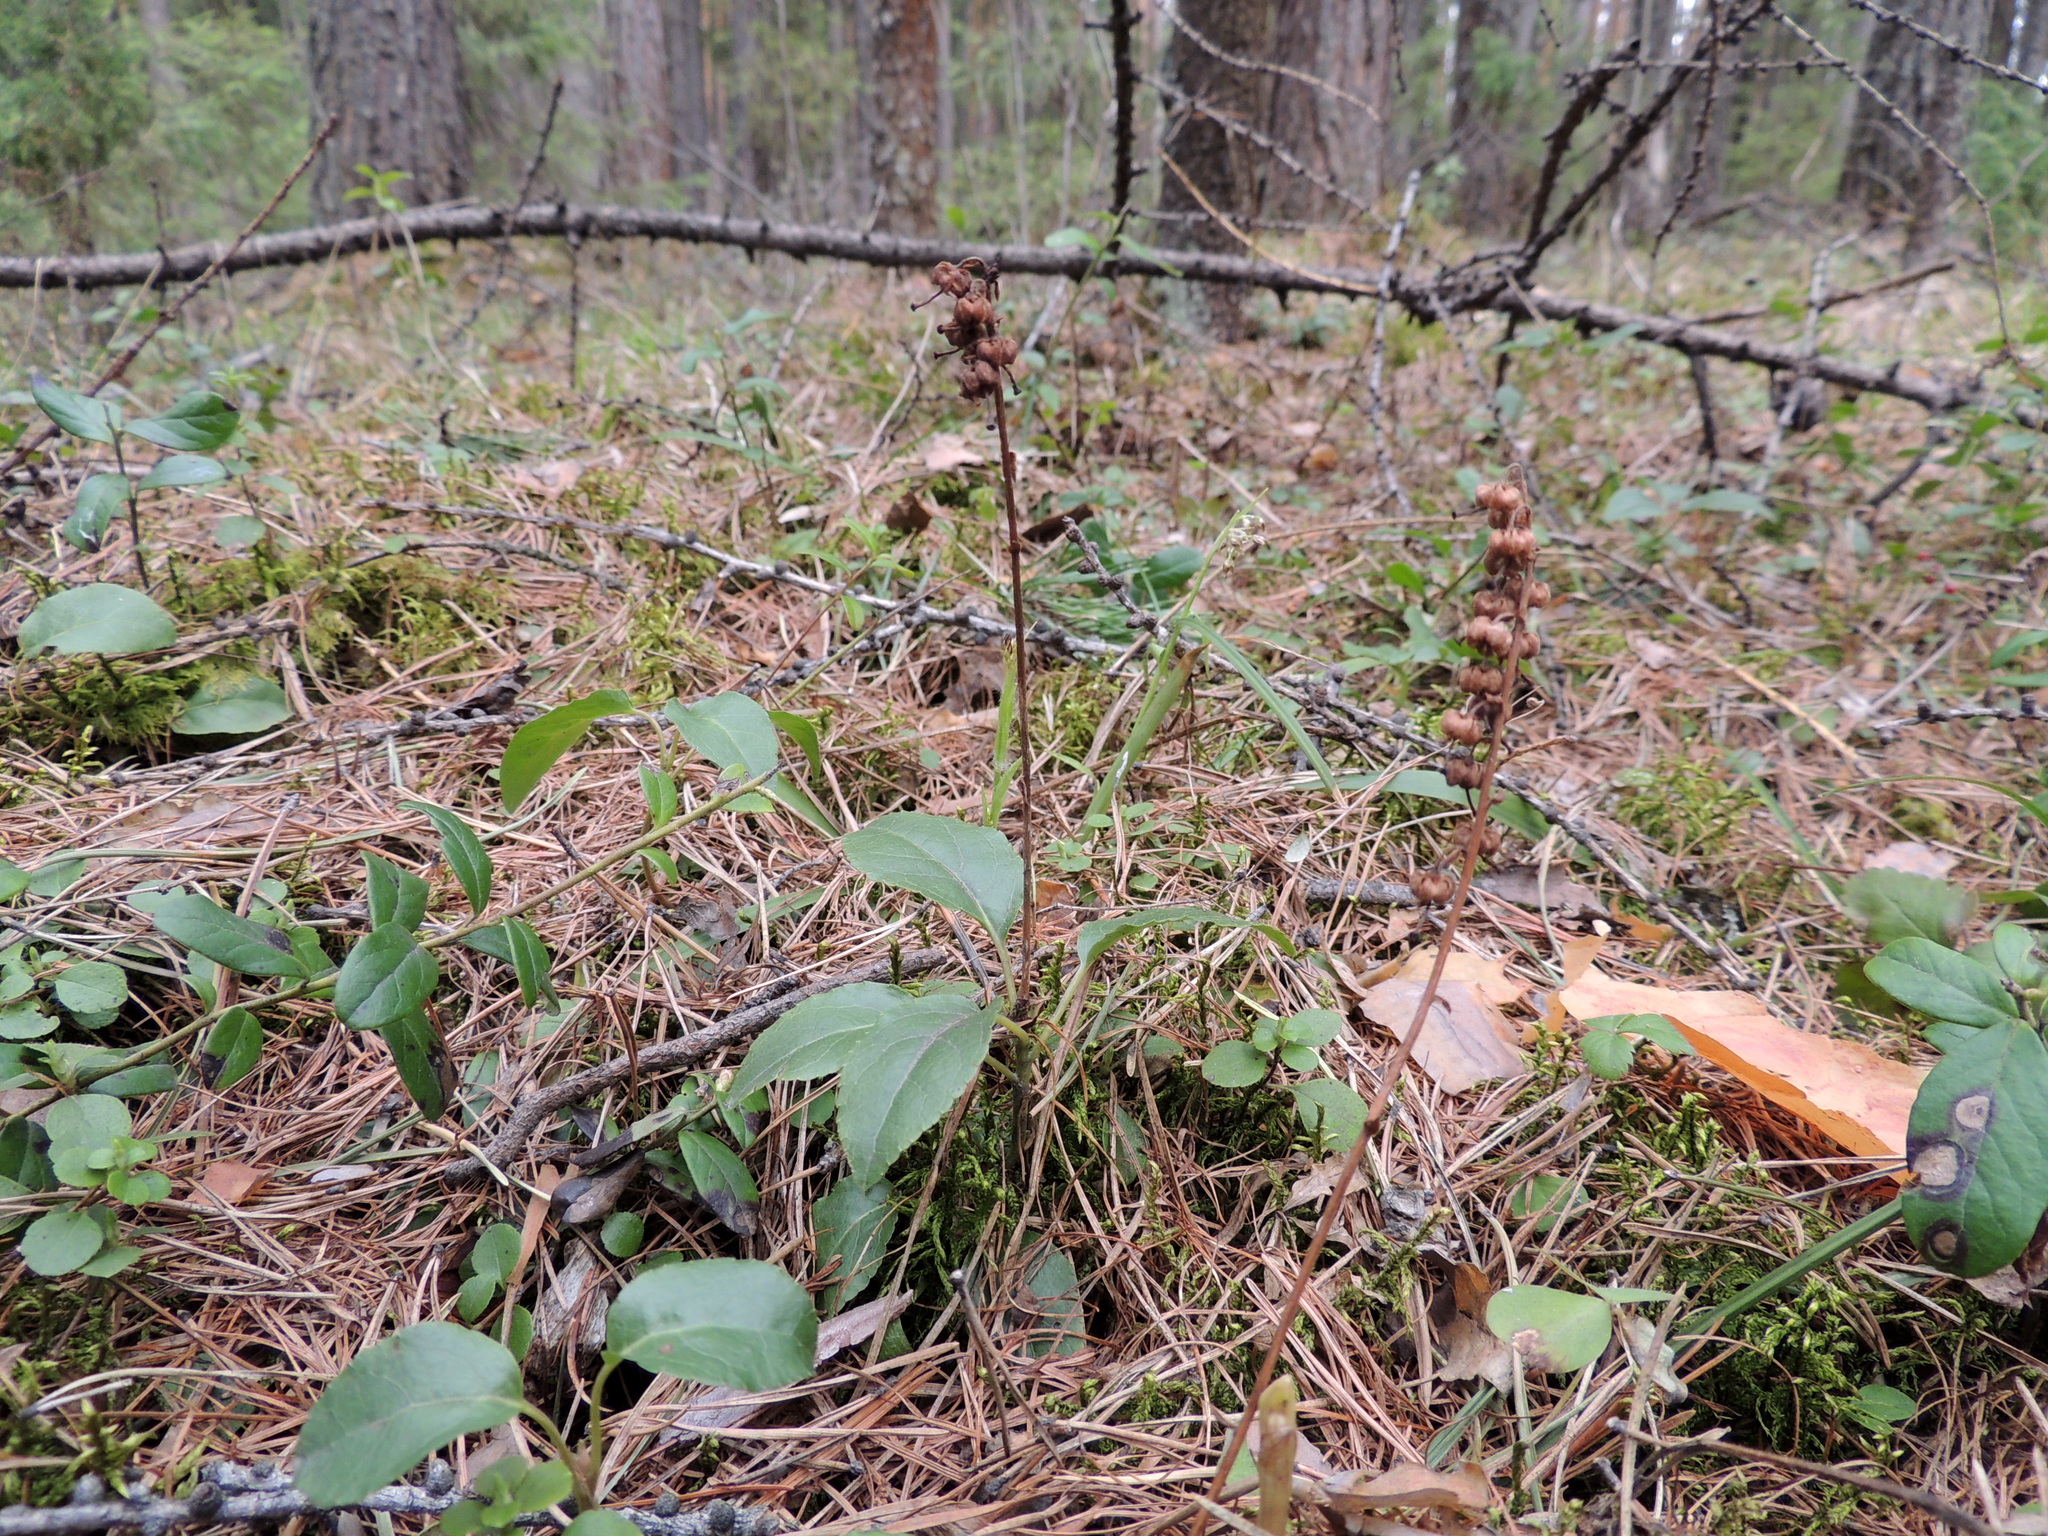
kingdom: Plantae
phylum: Tracheophyta
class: Magnoliopsida
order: Ericales
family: Ericaceae
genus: Orthilia
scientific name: Orthilia secunda
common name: One-sided orthilia
